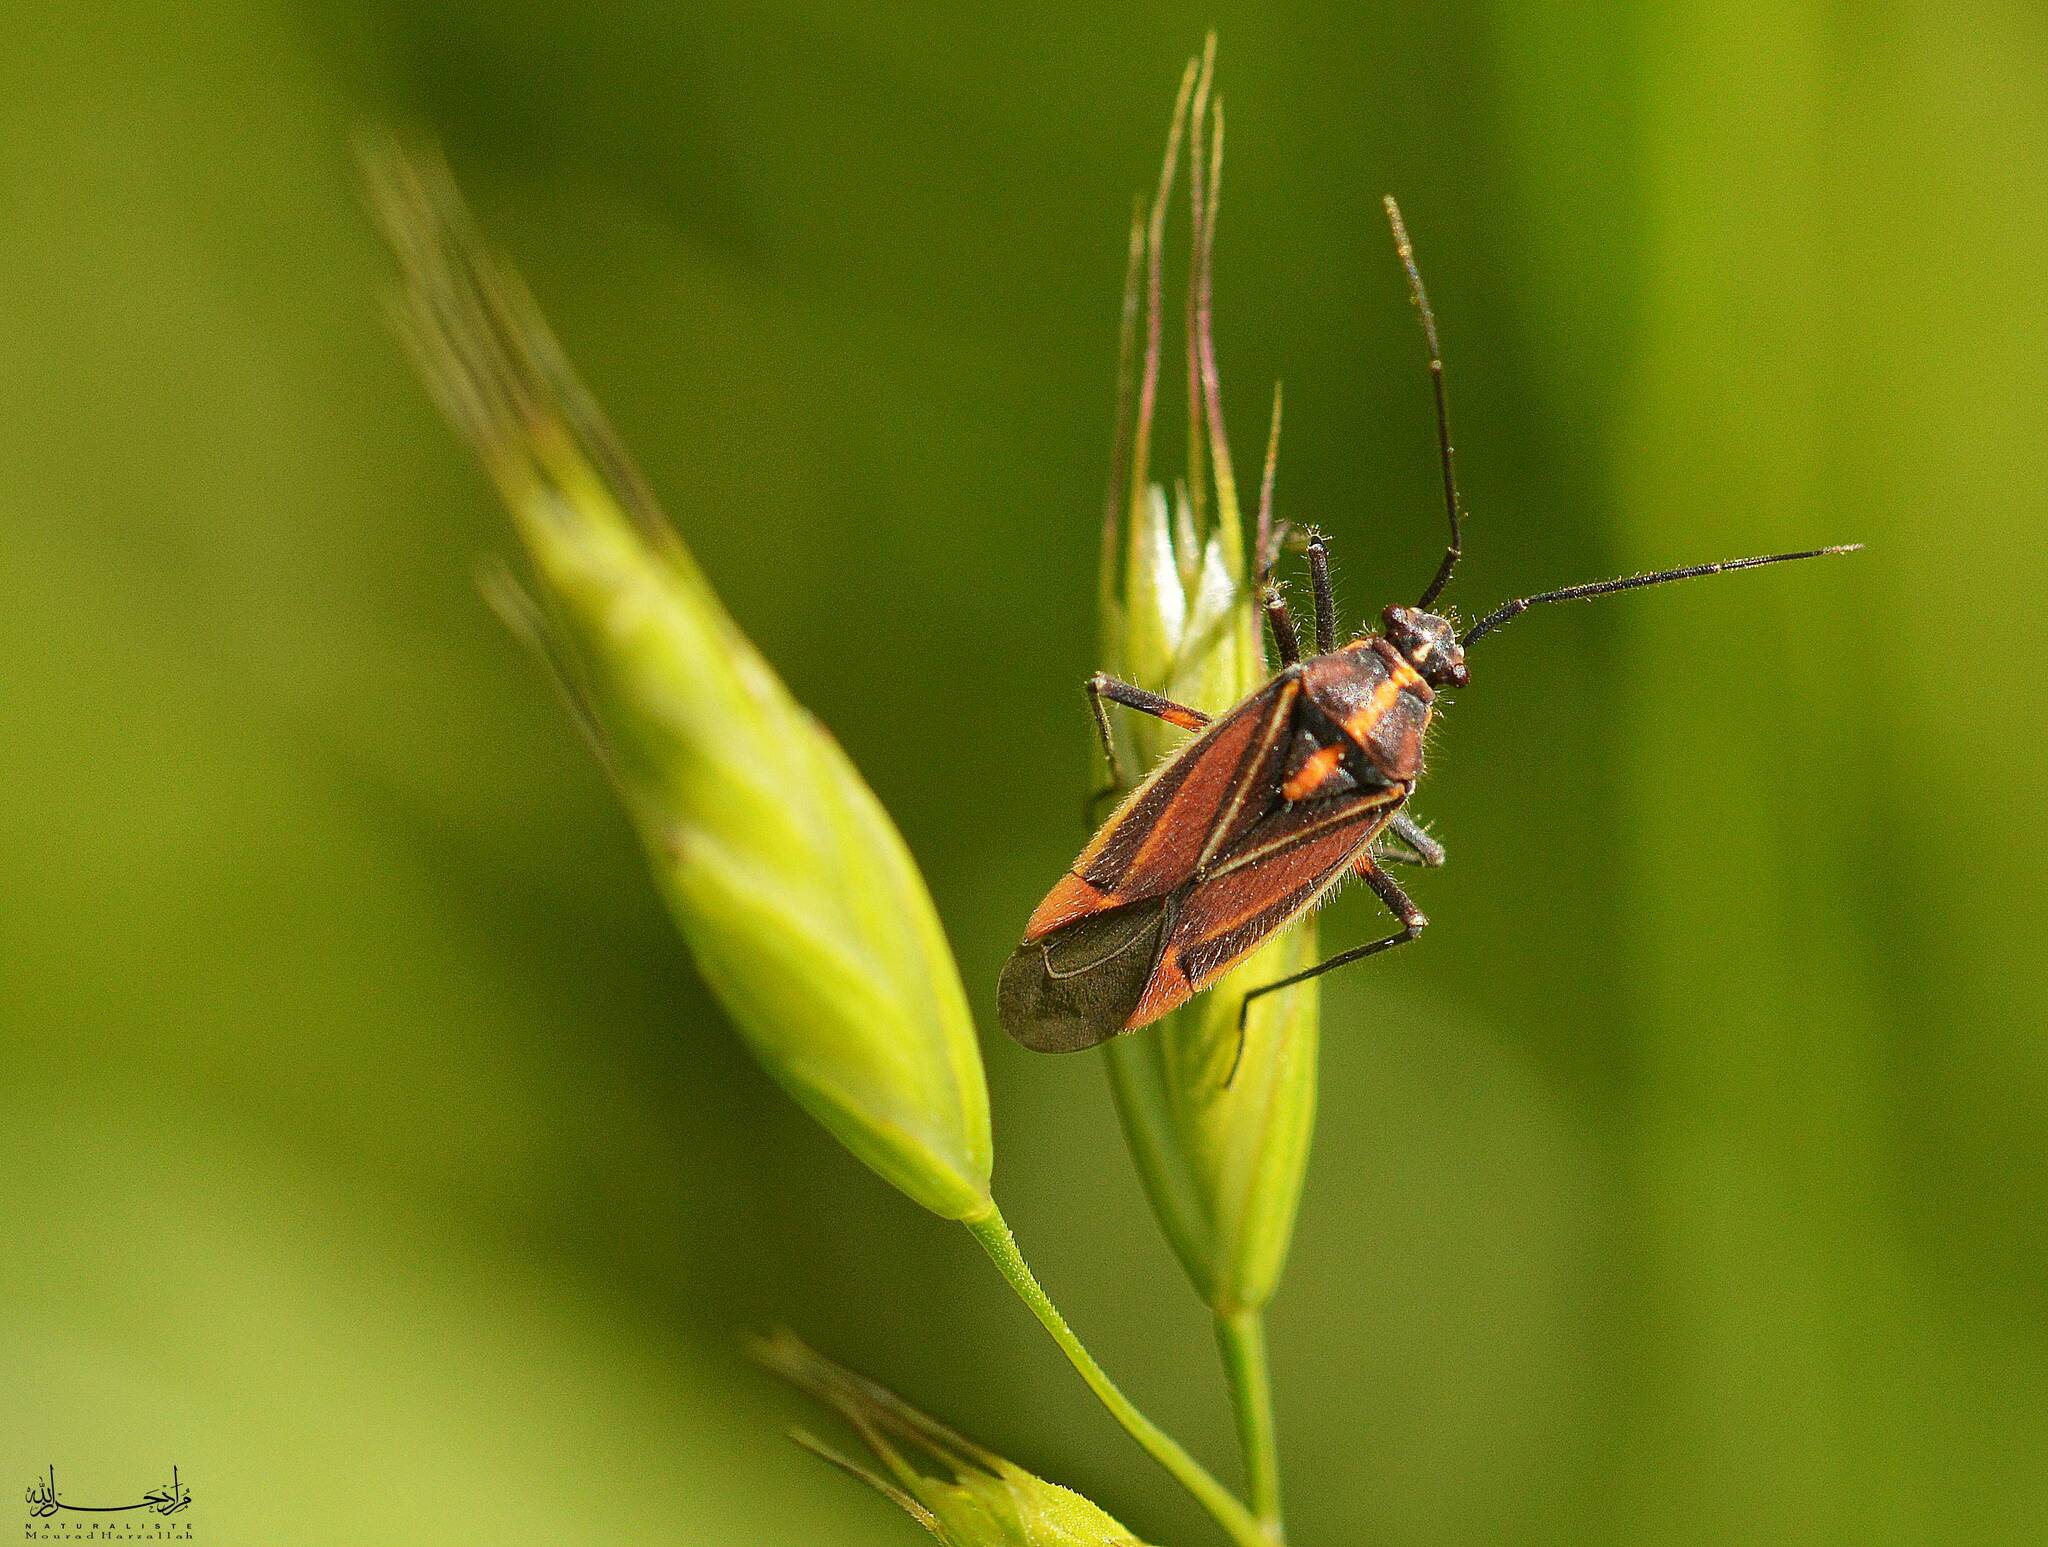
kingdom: Animalia
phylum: Arthropoda
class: Insecta
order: Hemiptera
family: Miridae
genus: Horistus
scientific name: Horistus orientalis
